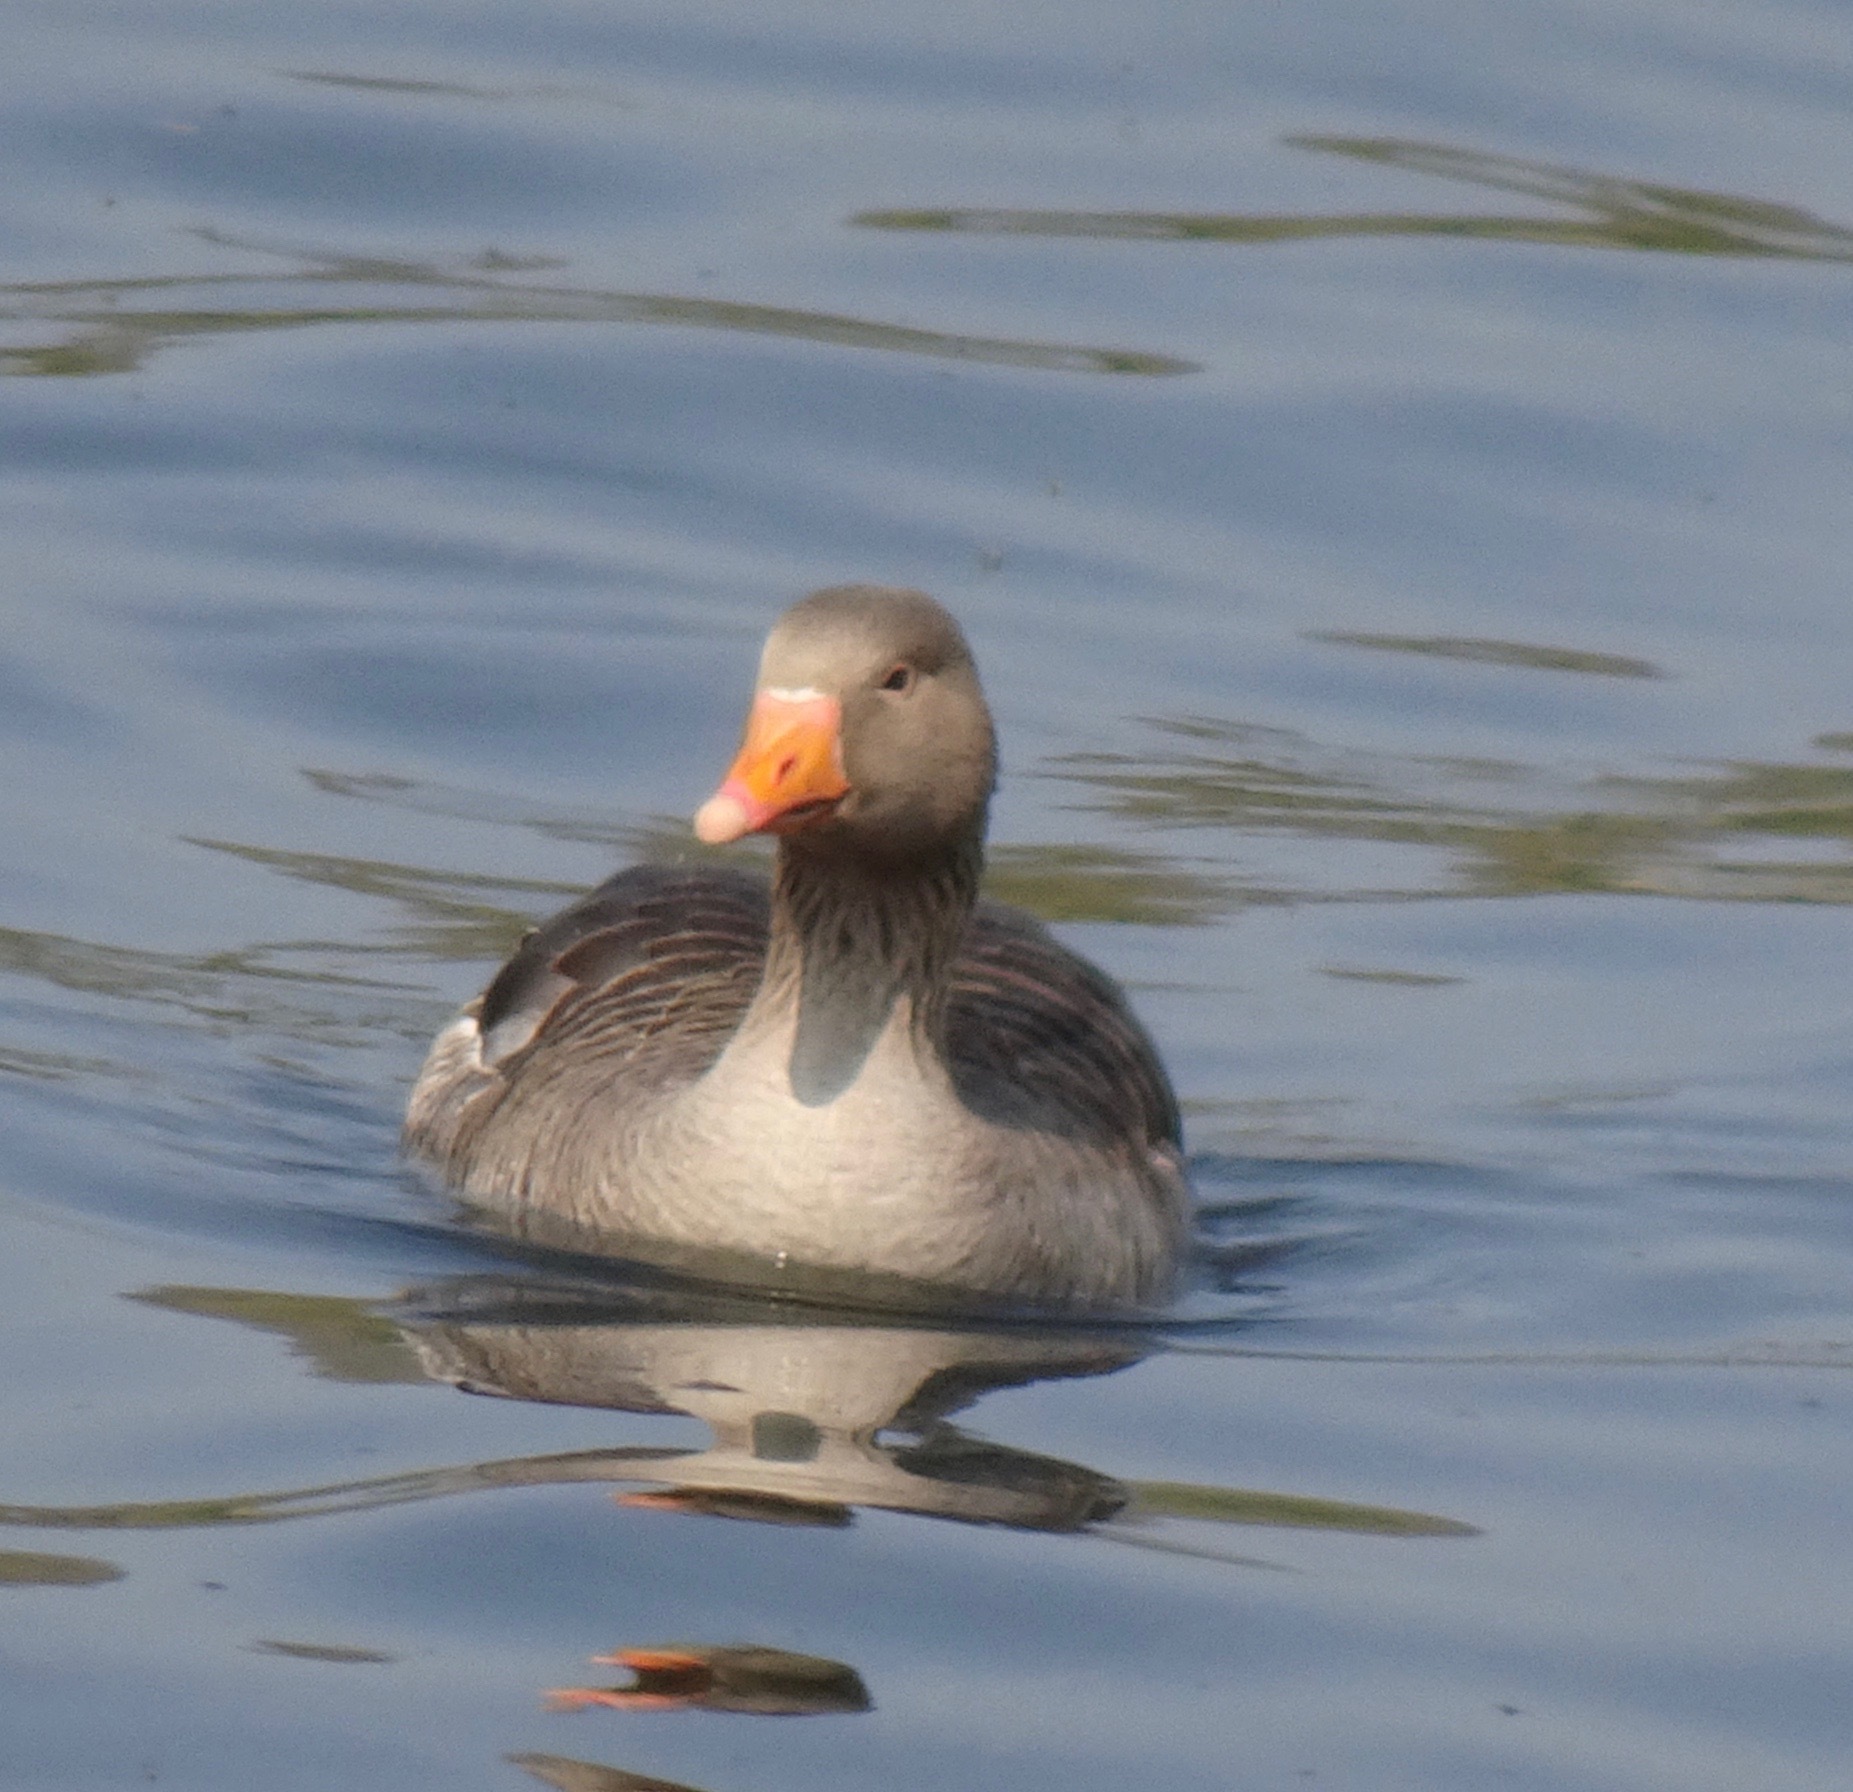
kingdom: Animalia
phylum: Chordata
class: Aves
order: Anseriformes
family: Anatidae
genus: Anser
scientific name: Anser anser
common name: Greylag goose
